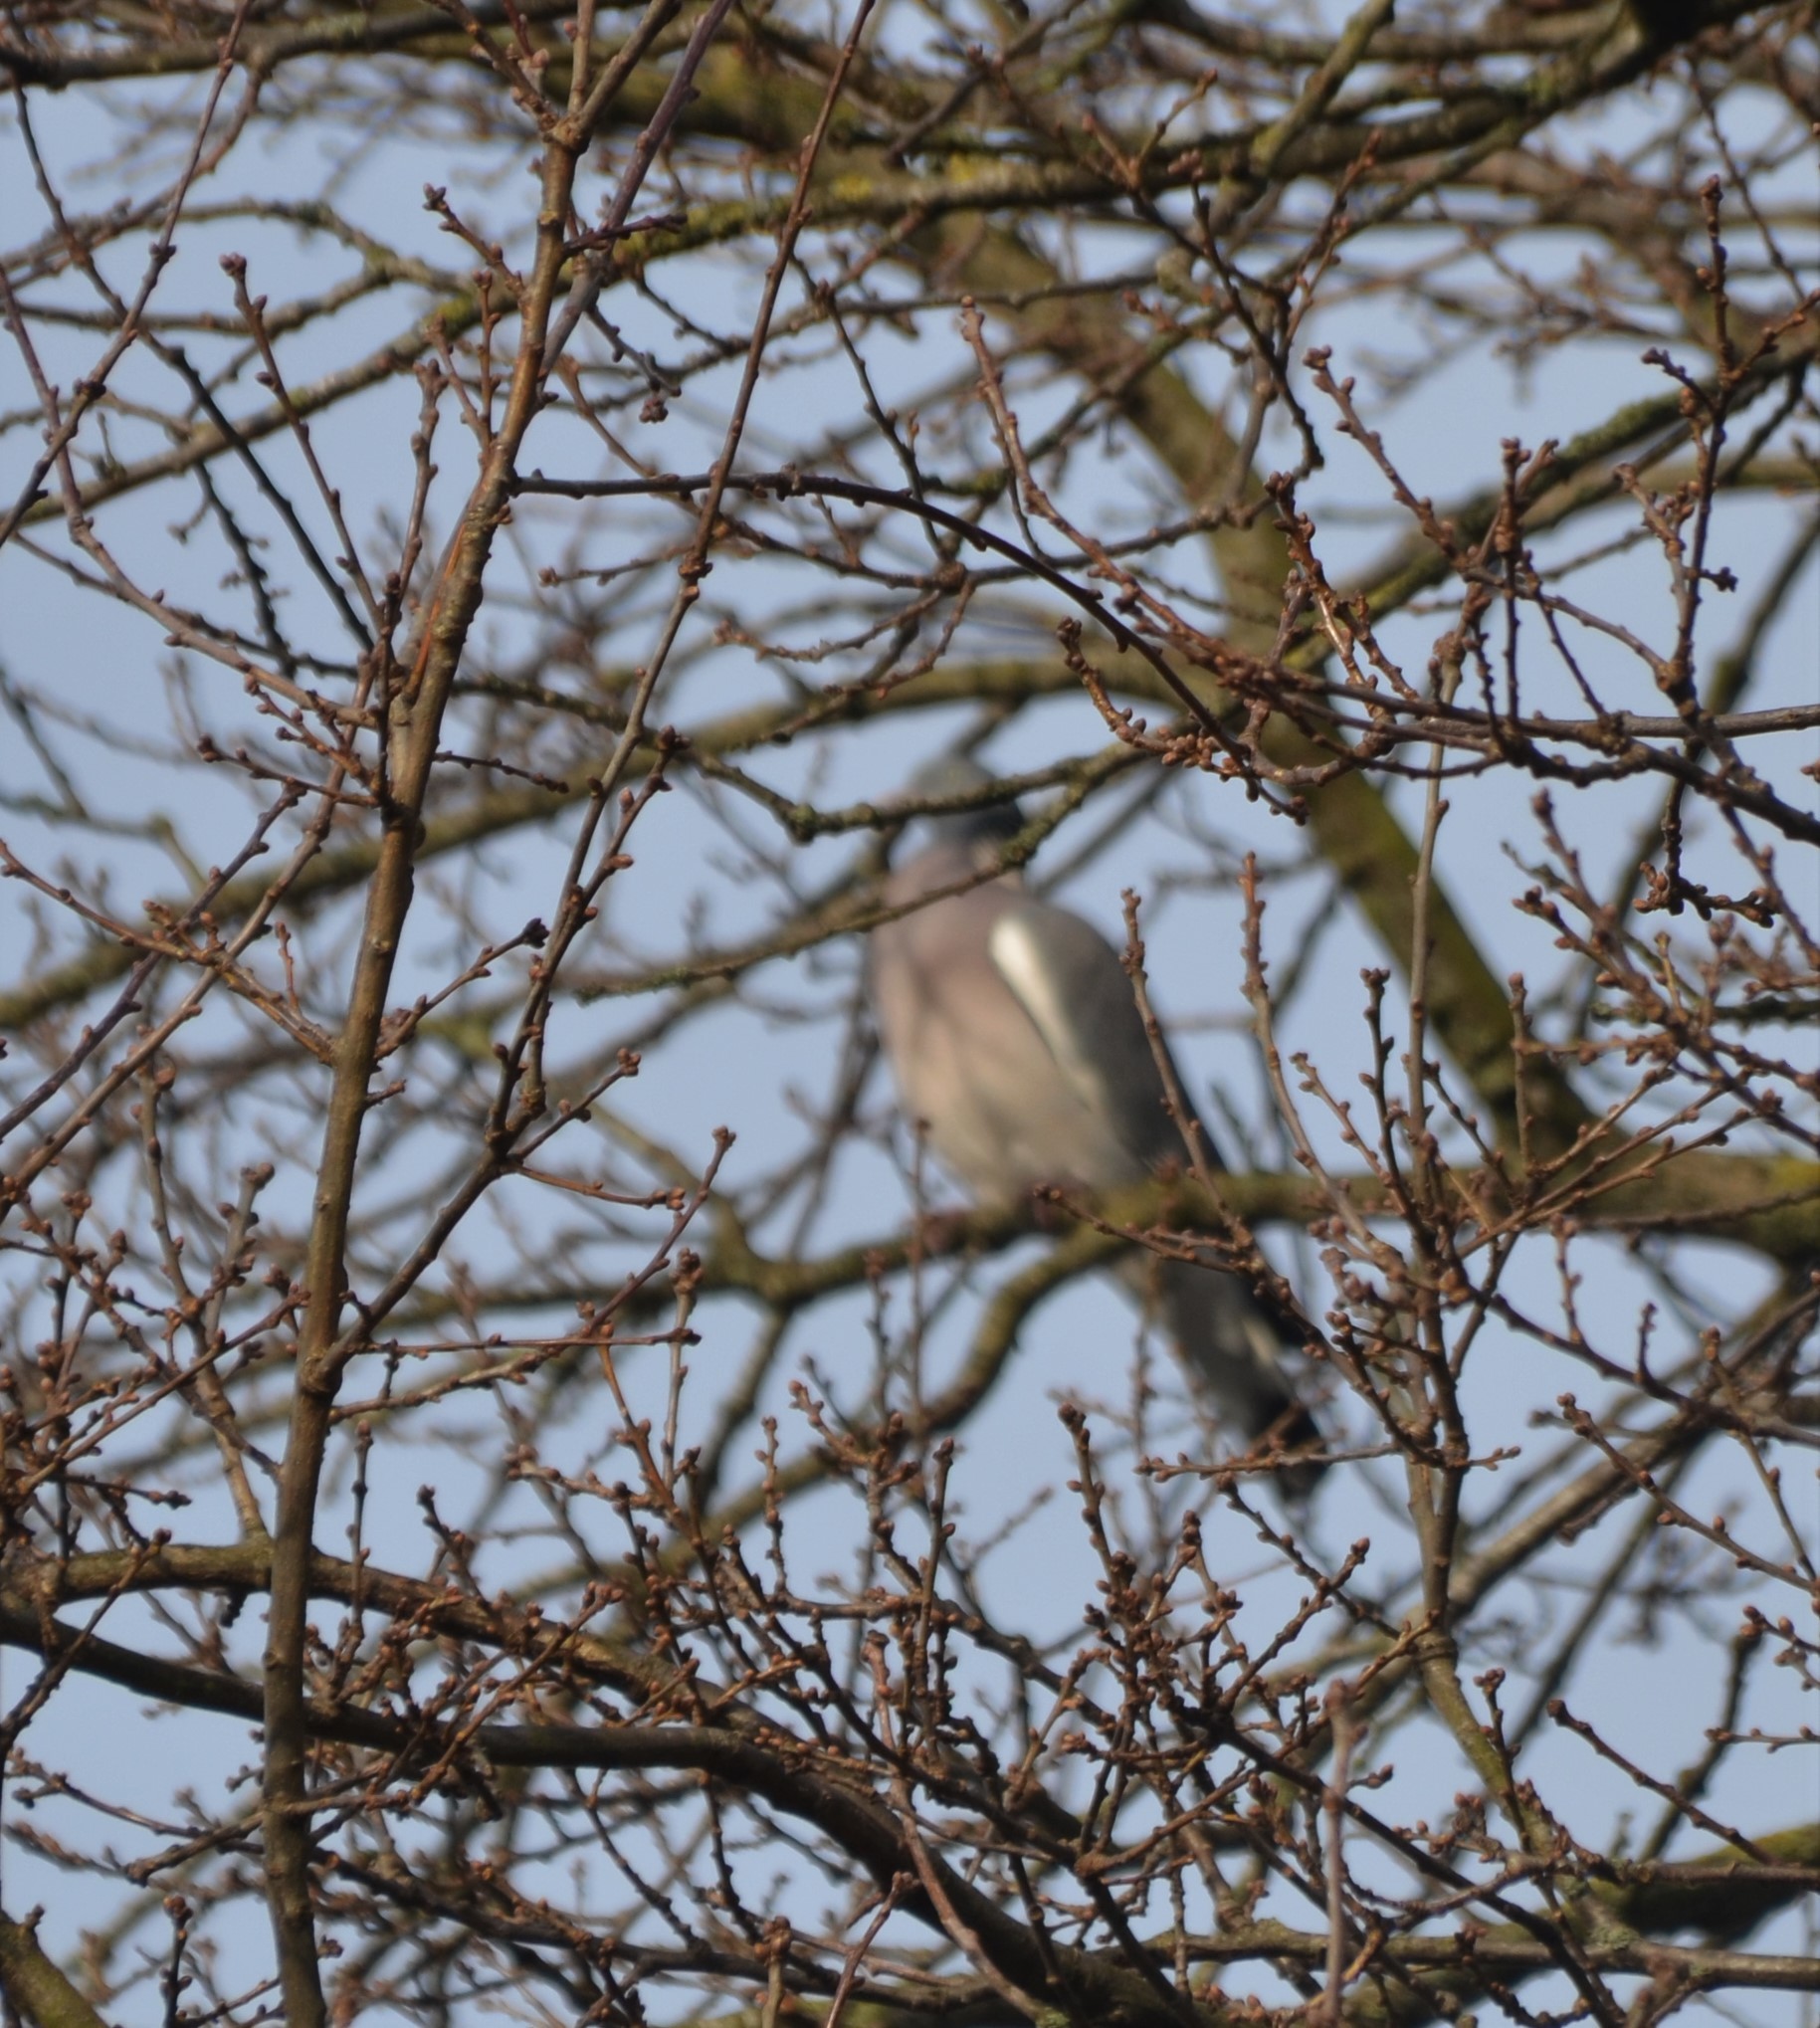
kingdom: Animalia
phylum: Chordata
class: Aves
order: Columbiformes
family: Columbidae
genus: Columba
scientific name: Columba palumbus
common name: Common wood pigeon
